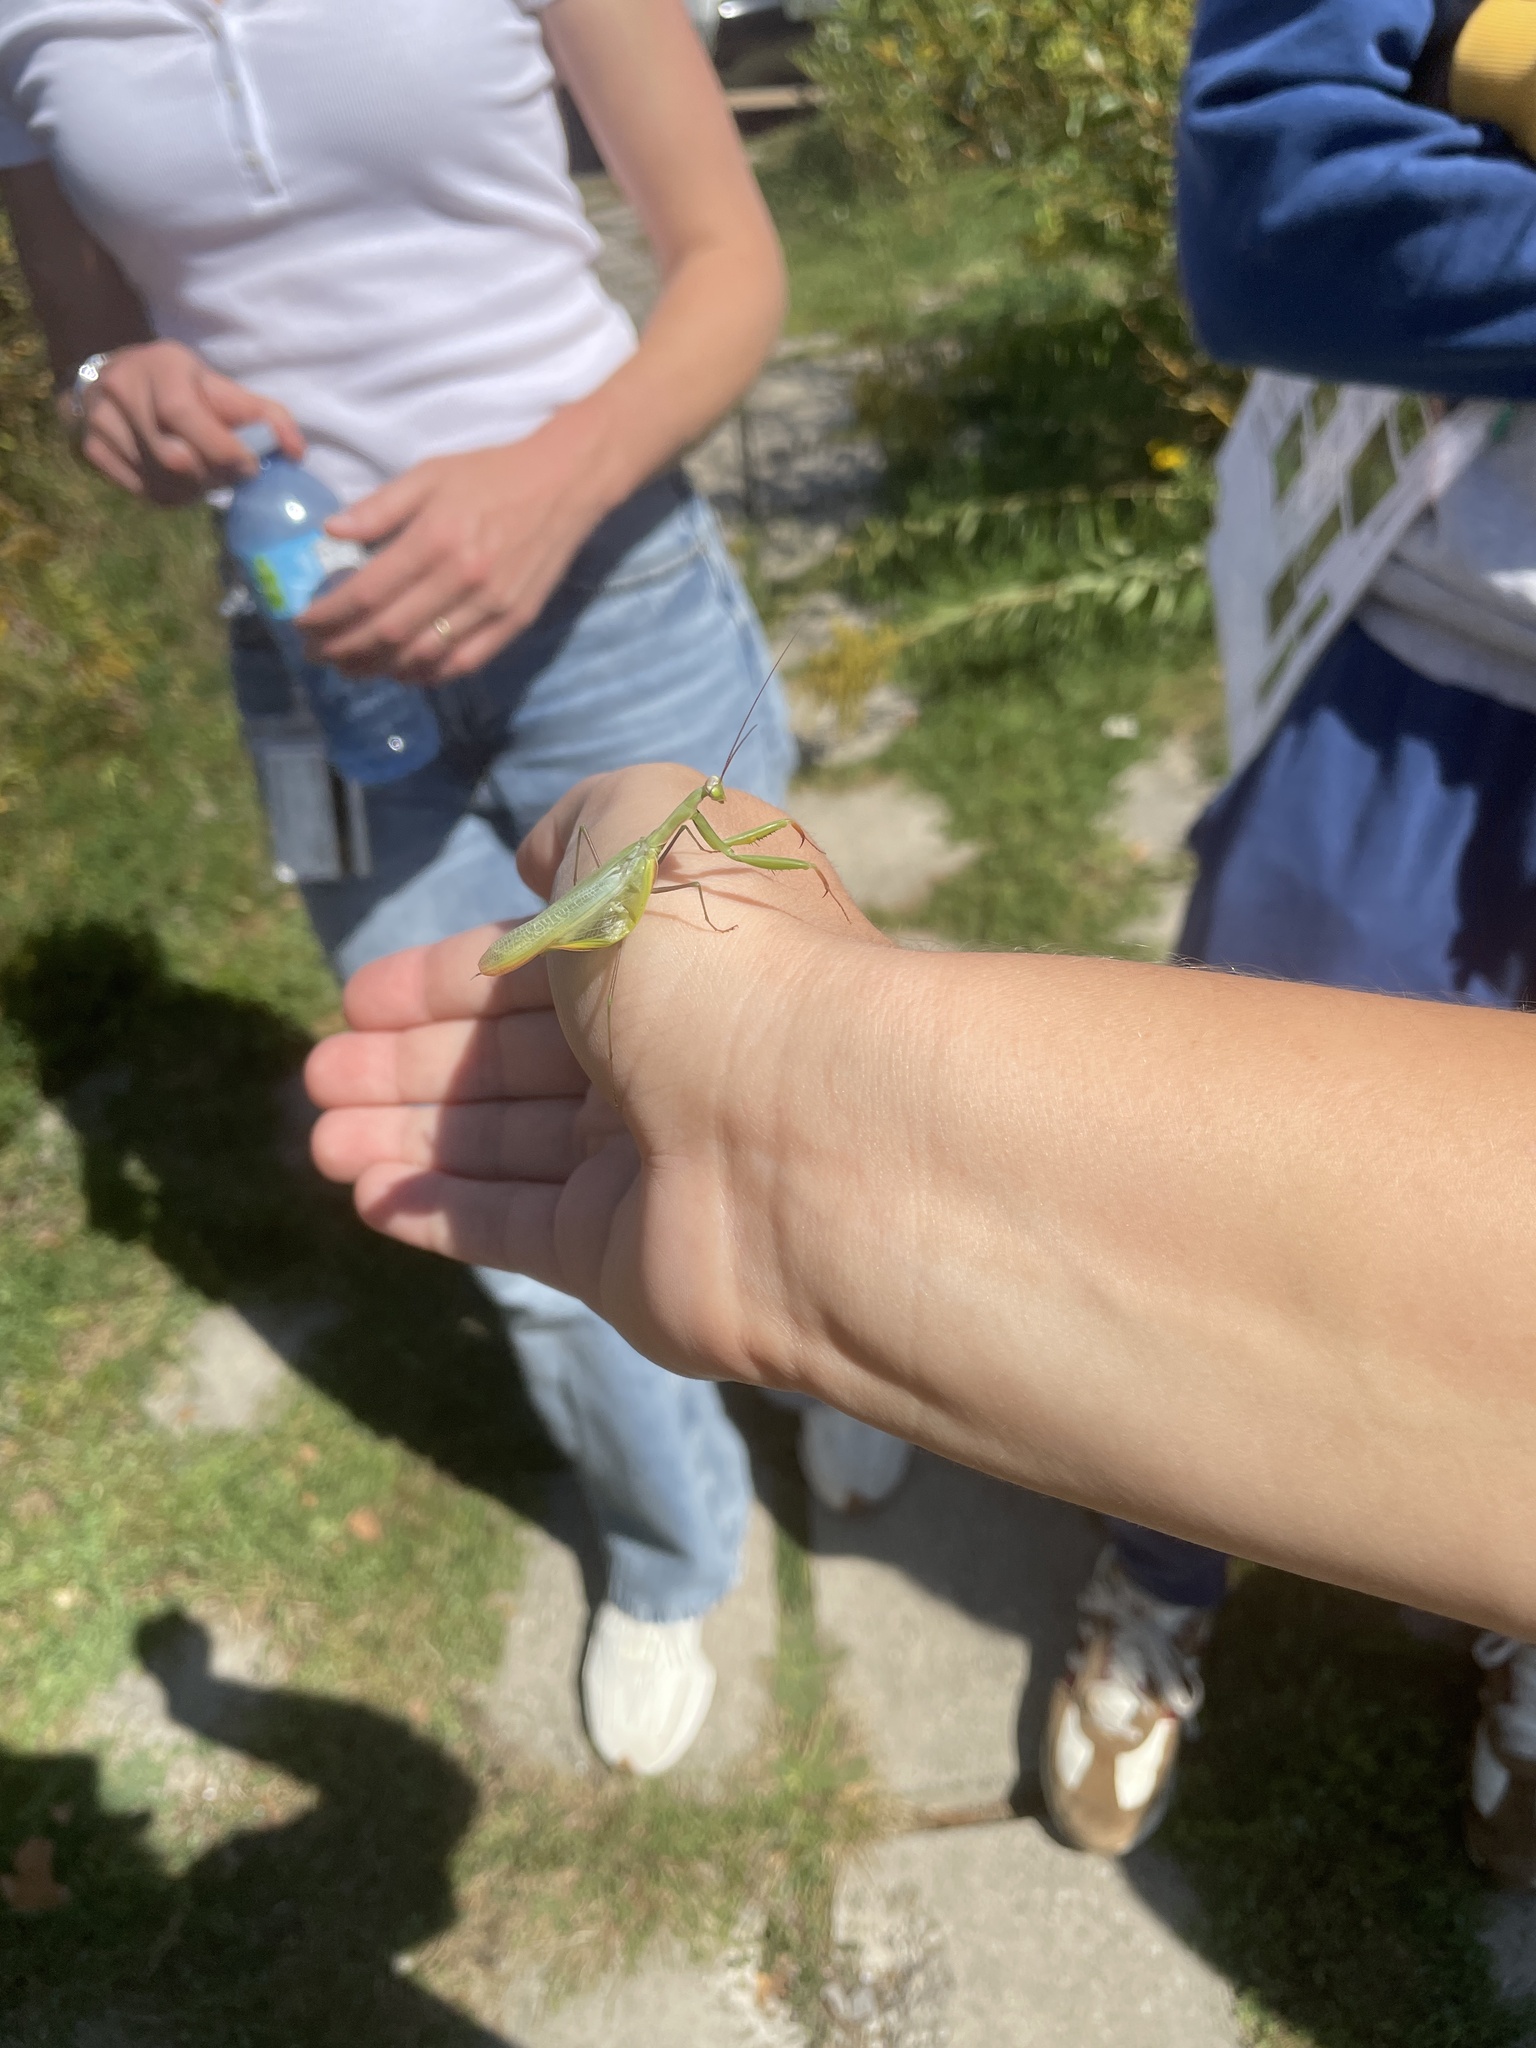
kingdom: Animalia
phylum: Arthropoda
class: Insecta
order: Mantodea
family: Mantidae
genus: Mantis
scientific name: Mantis religiosa
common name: Praying mantis
